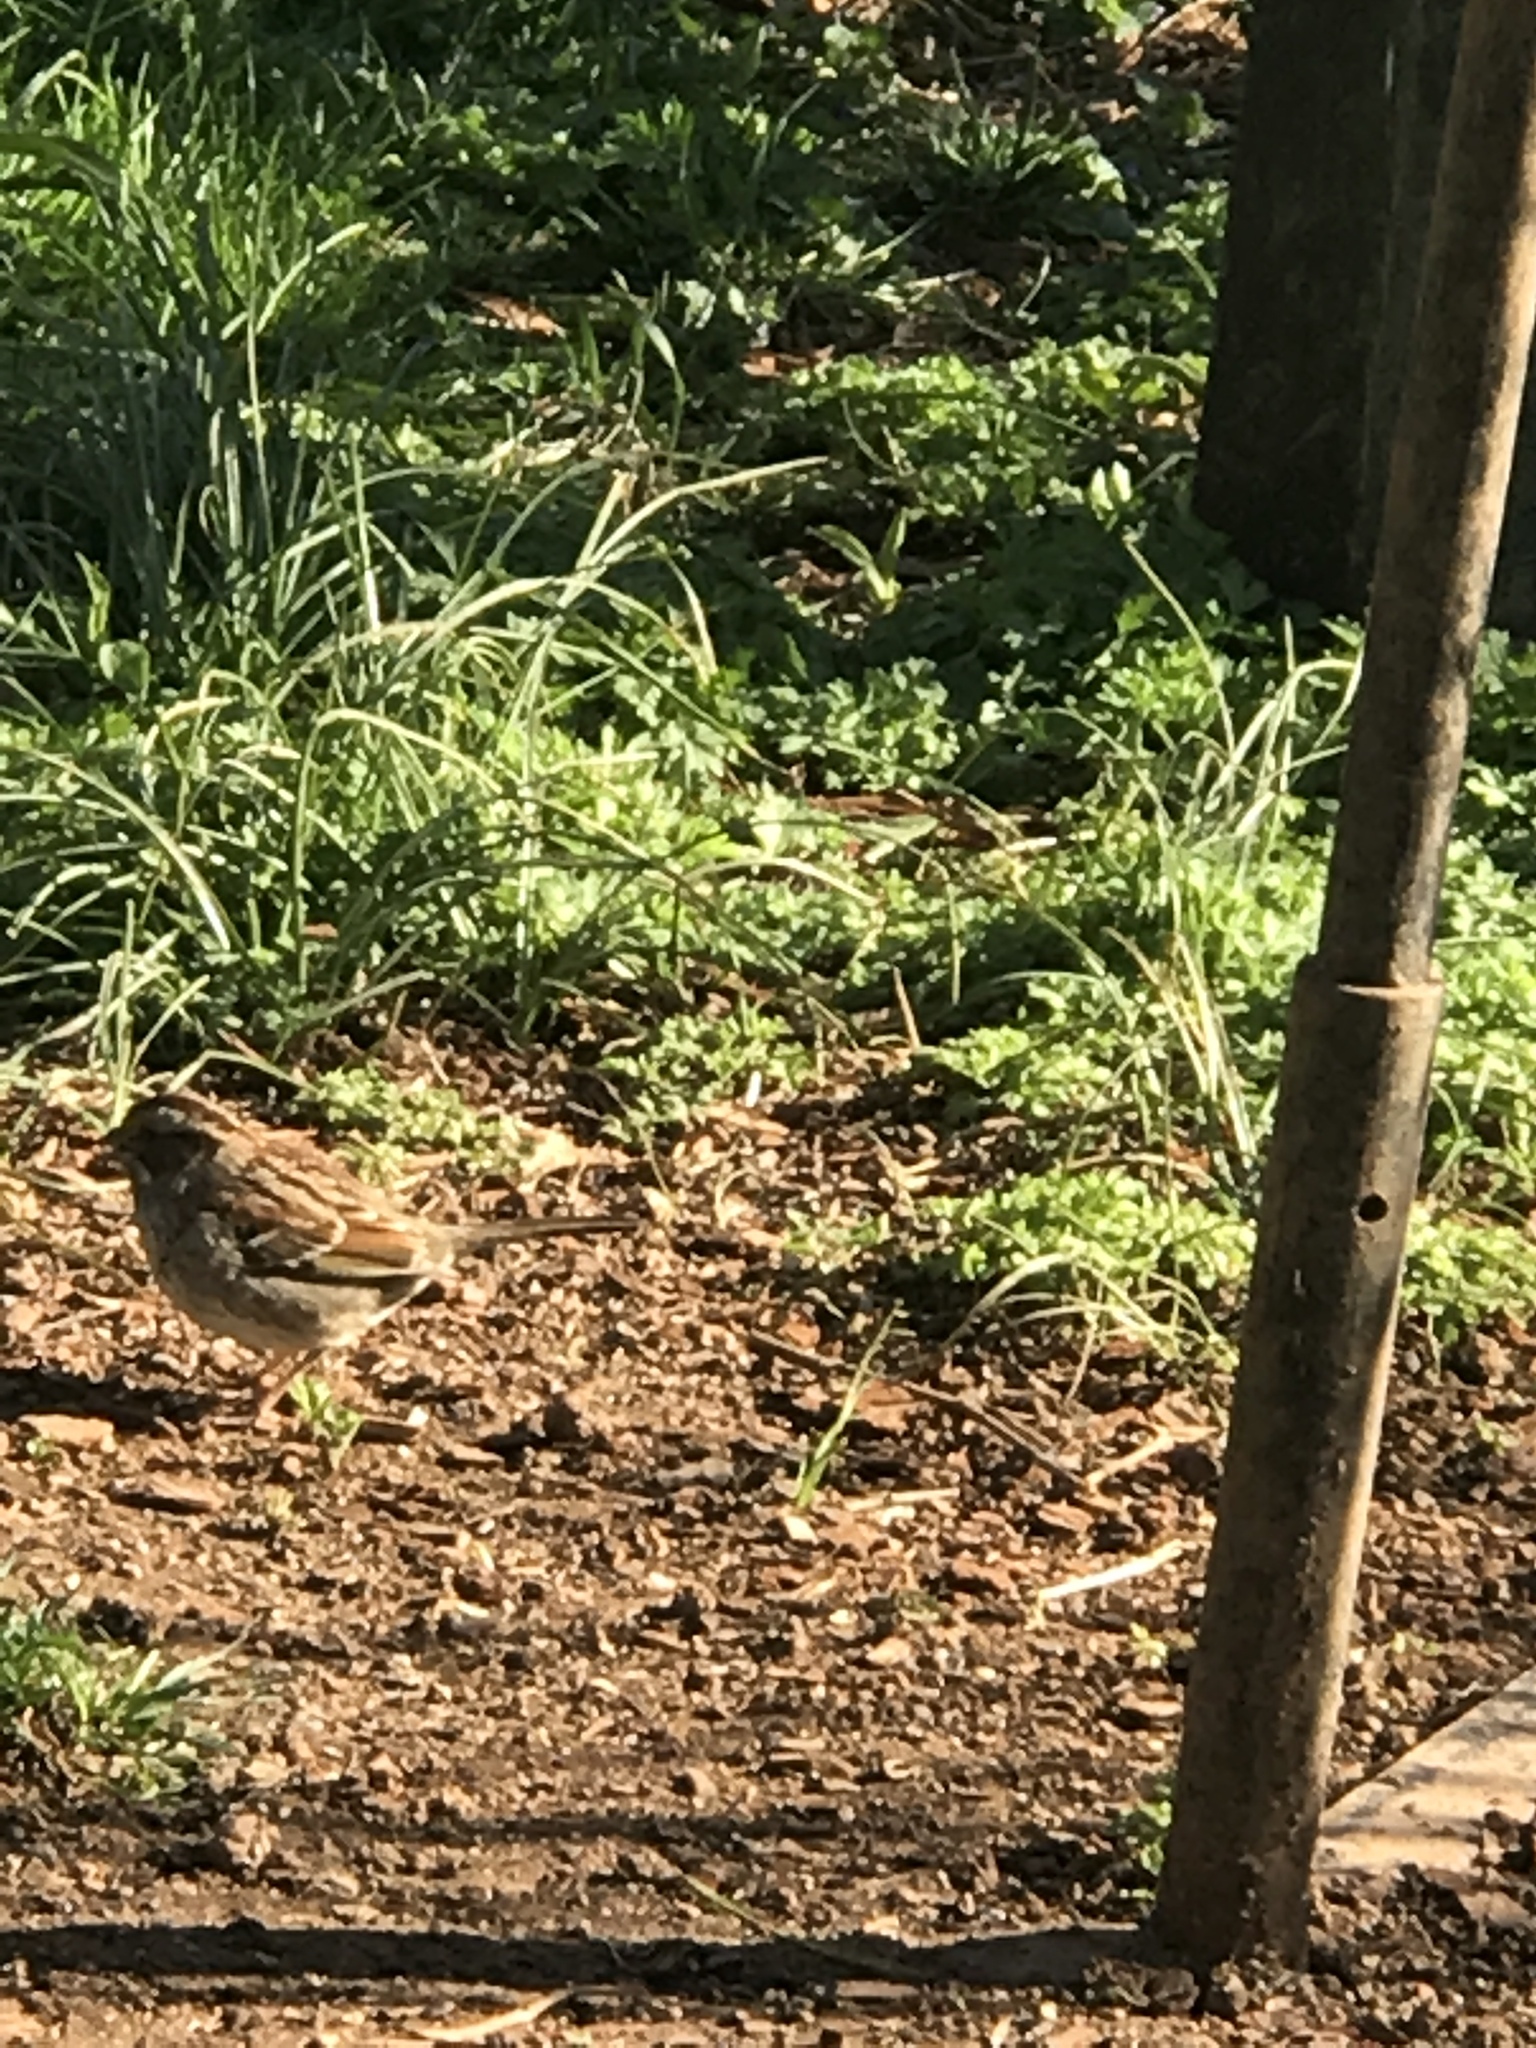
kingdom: Animalia
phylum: Chordata
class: Aves
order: Passeriformes
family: Passerellidae
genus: Melospiza
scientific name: Melospiza melodia
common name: Song sparrow
